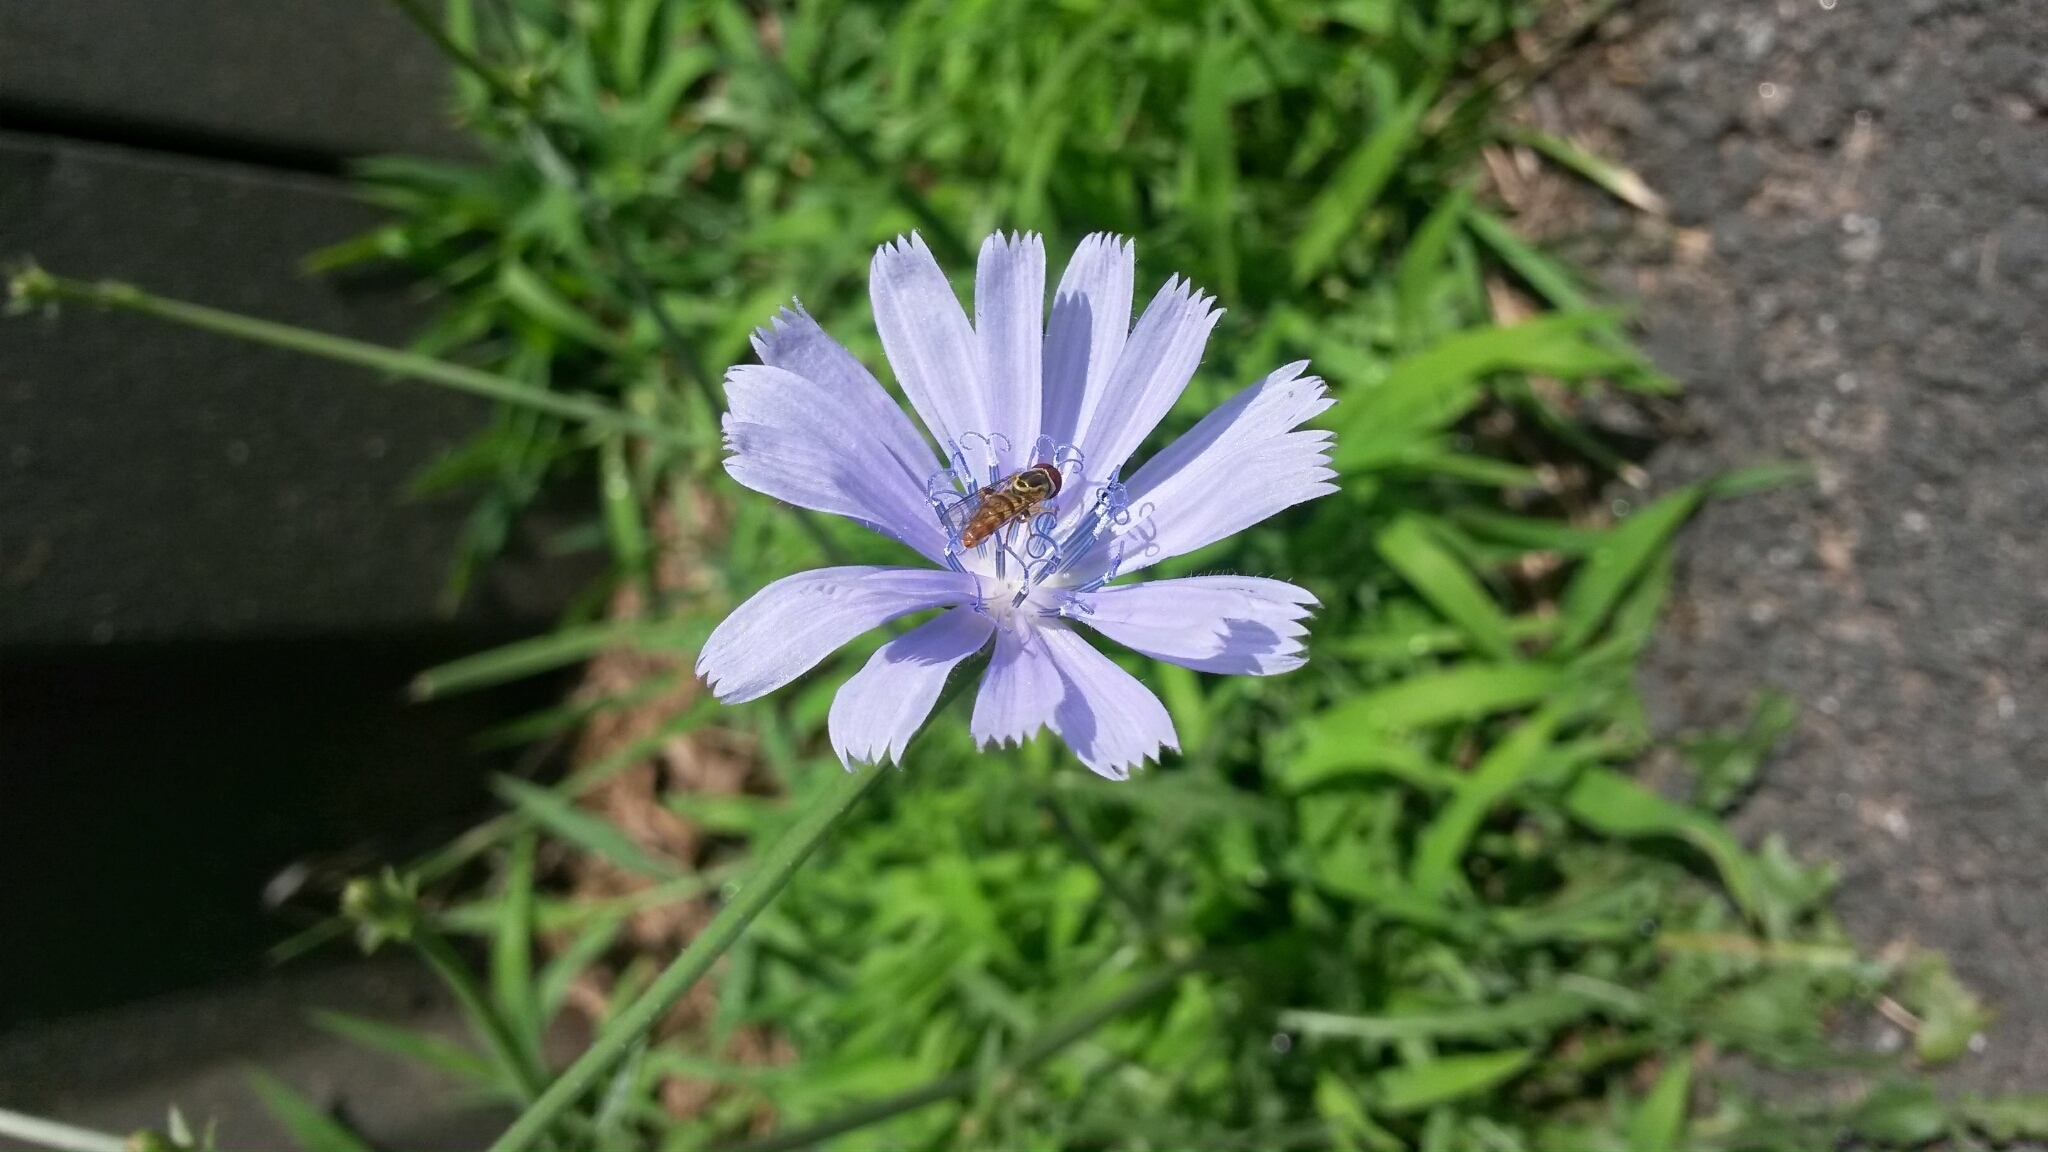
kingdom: Plantae
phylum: Tracheophyta
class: Magnoliopsida
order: Asterales
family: Asteraceae
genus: Cichorium
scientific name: Cichorium intybus
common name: Chicory
